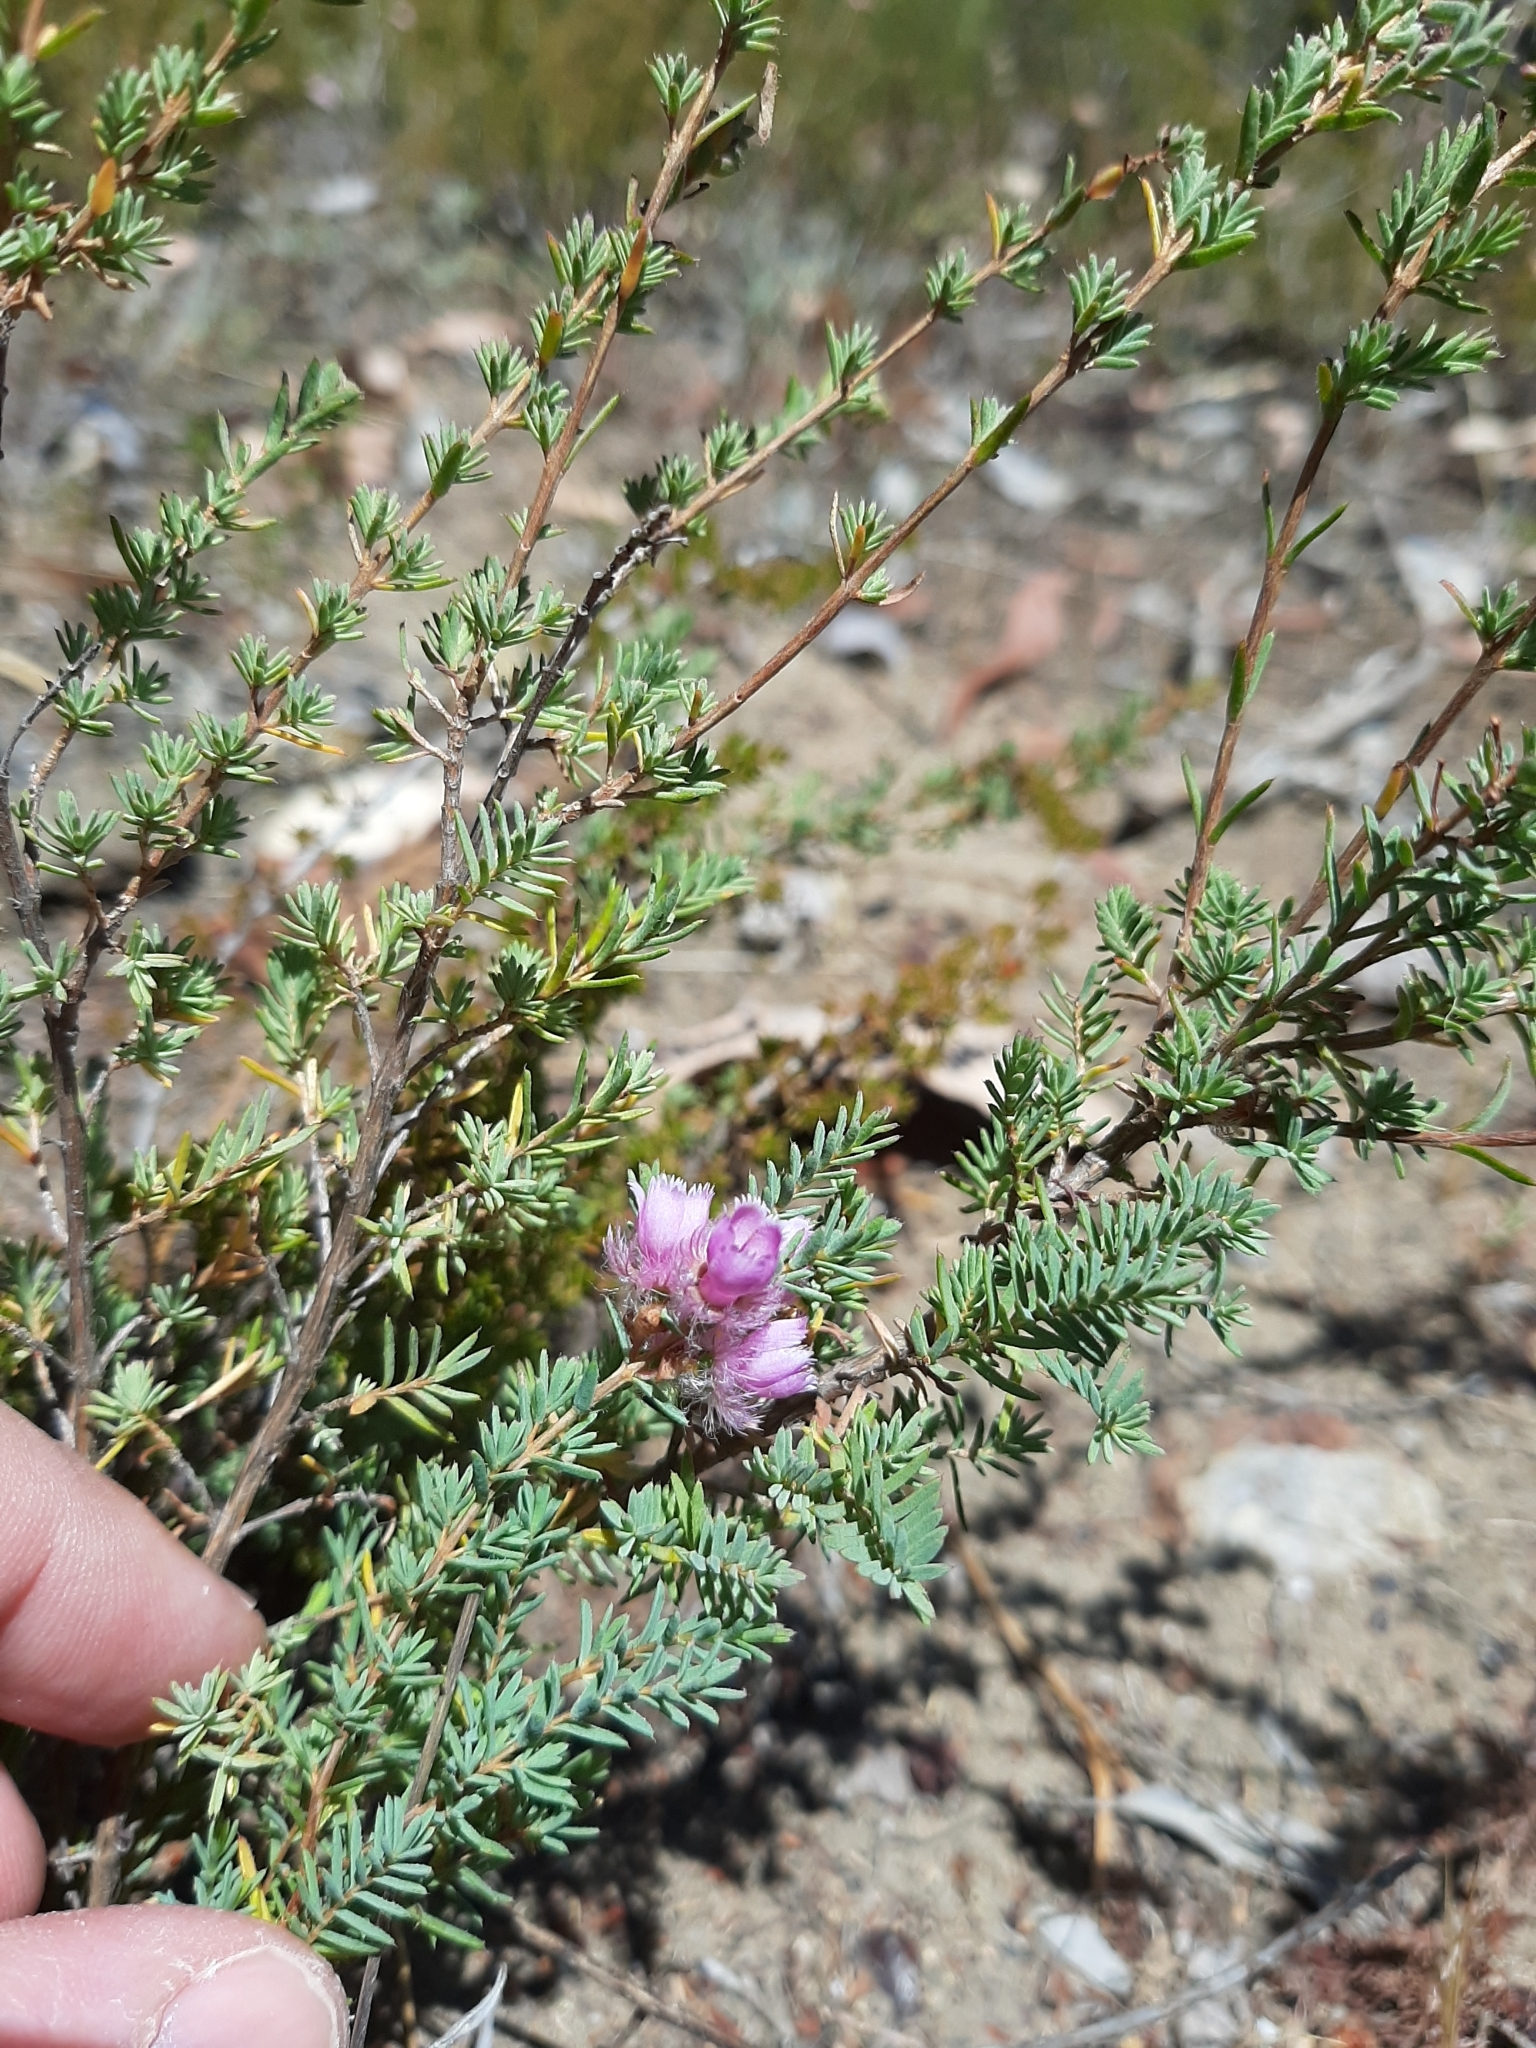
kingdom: Plantae
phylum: Tracheophyta
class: Magnoliopsida
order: Myrtales
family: Myrtaceae
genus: Verticordia
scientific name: Verticordia pennigera
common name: Native-tea
